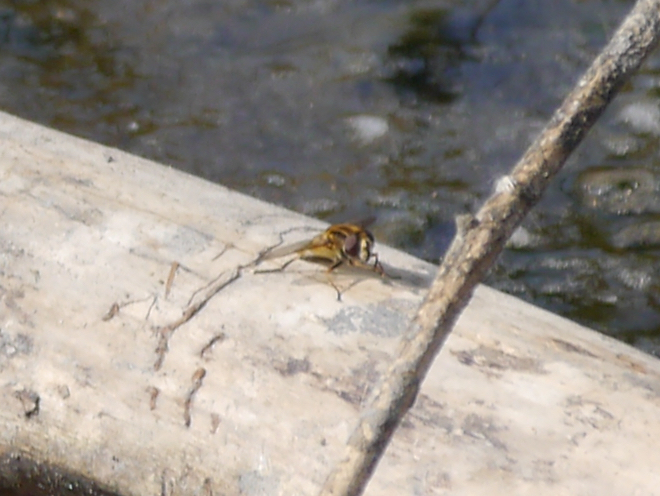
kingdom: Animalia
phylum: Arthropoda
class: Insecta
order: Diptera
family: Syrphidae
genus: Helophilus
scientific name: Helophilus hybridus
